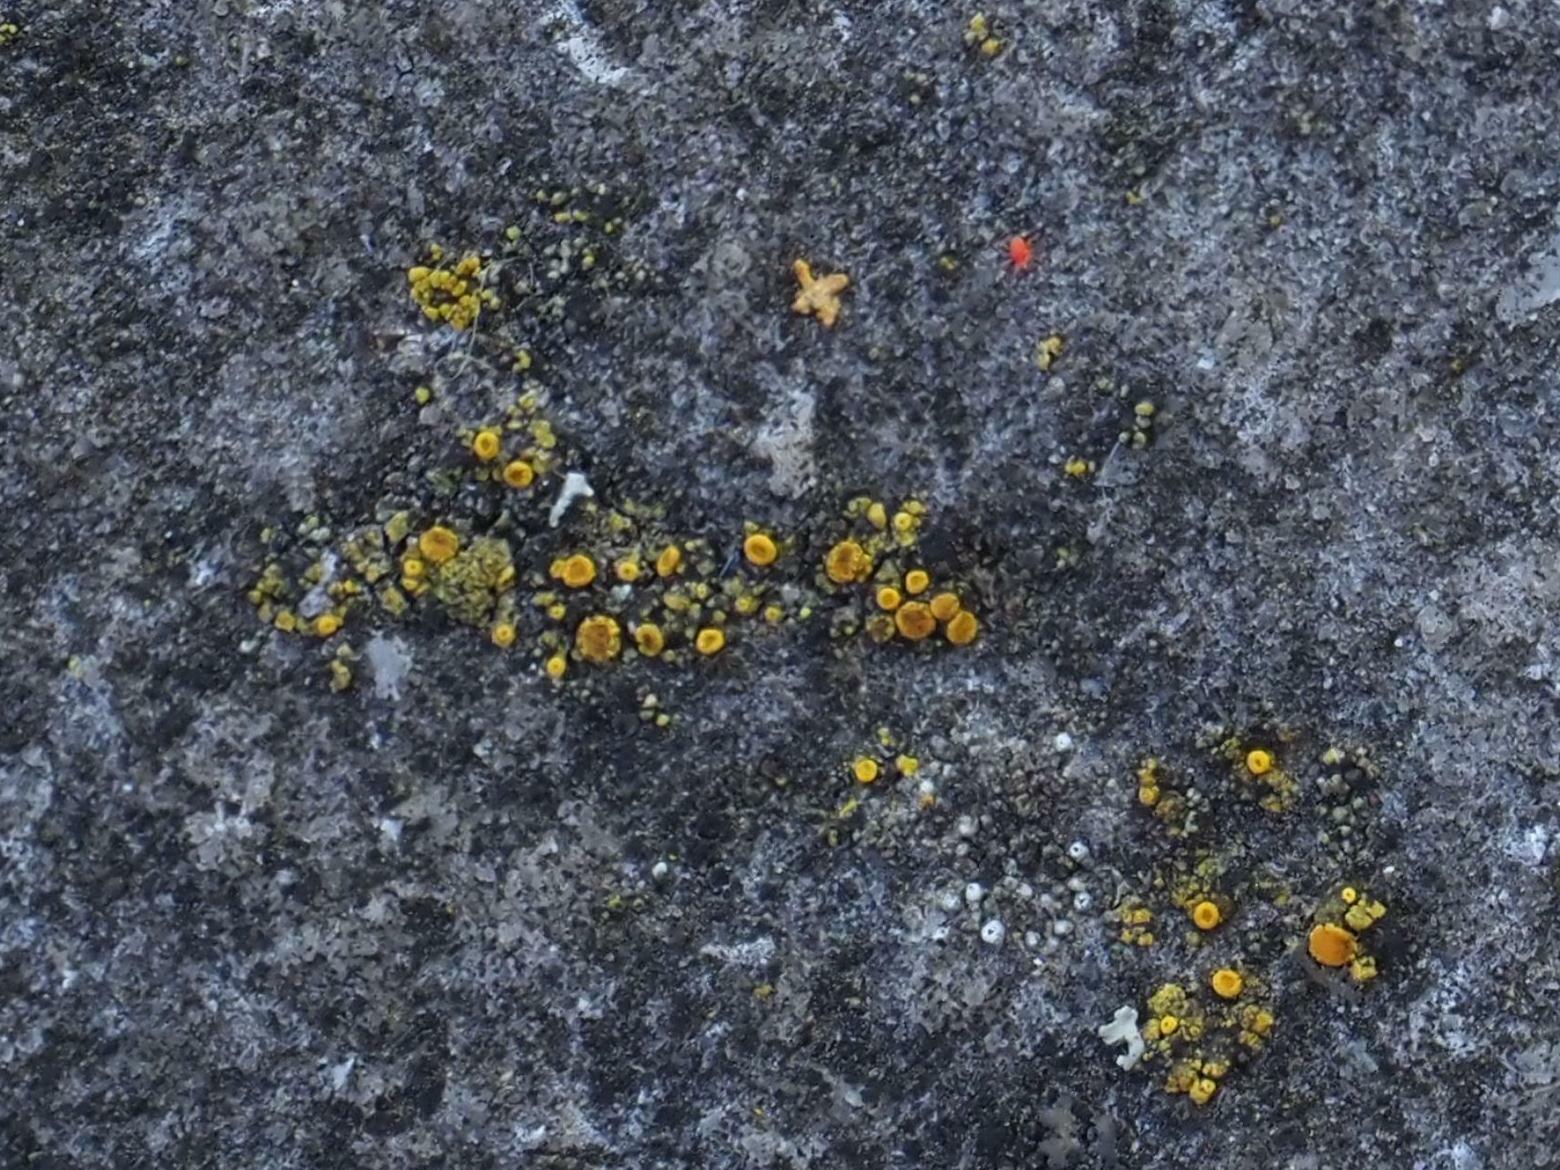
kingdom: Fungi
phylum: Ascomycota
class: Candelariomycetes
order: Candelariales
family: Candelariaceae
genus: Candelariella
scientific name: Candelariella aurella
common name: Hidden goldspeck lichen
